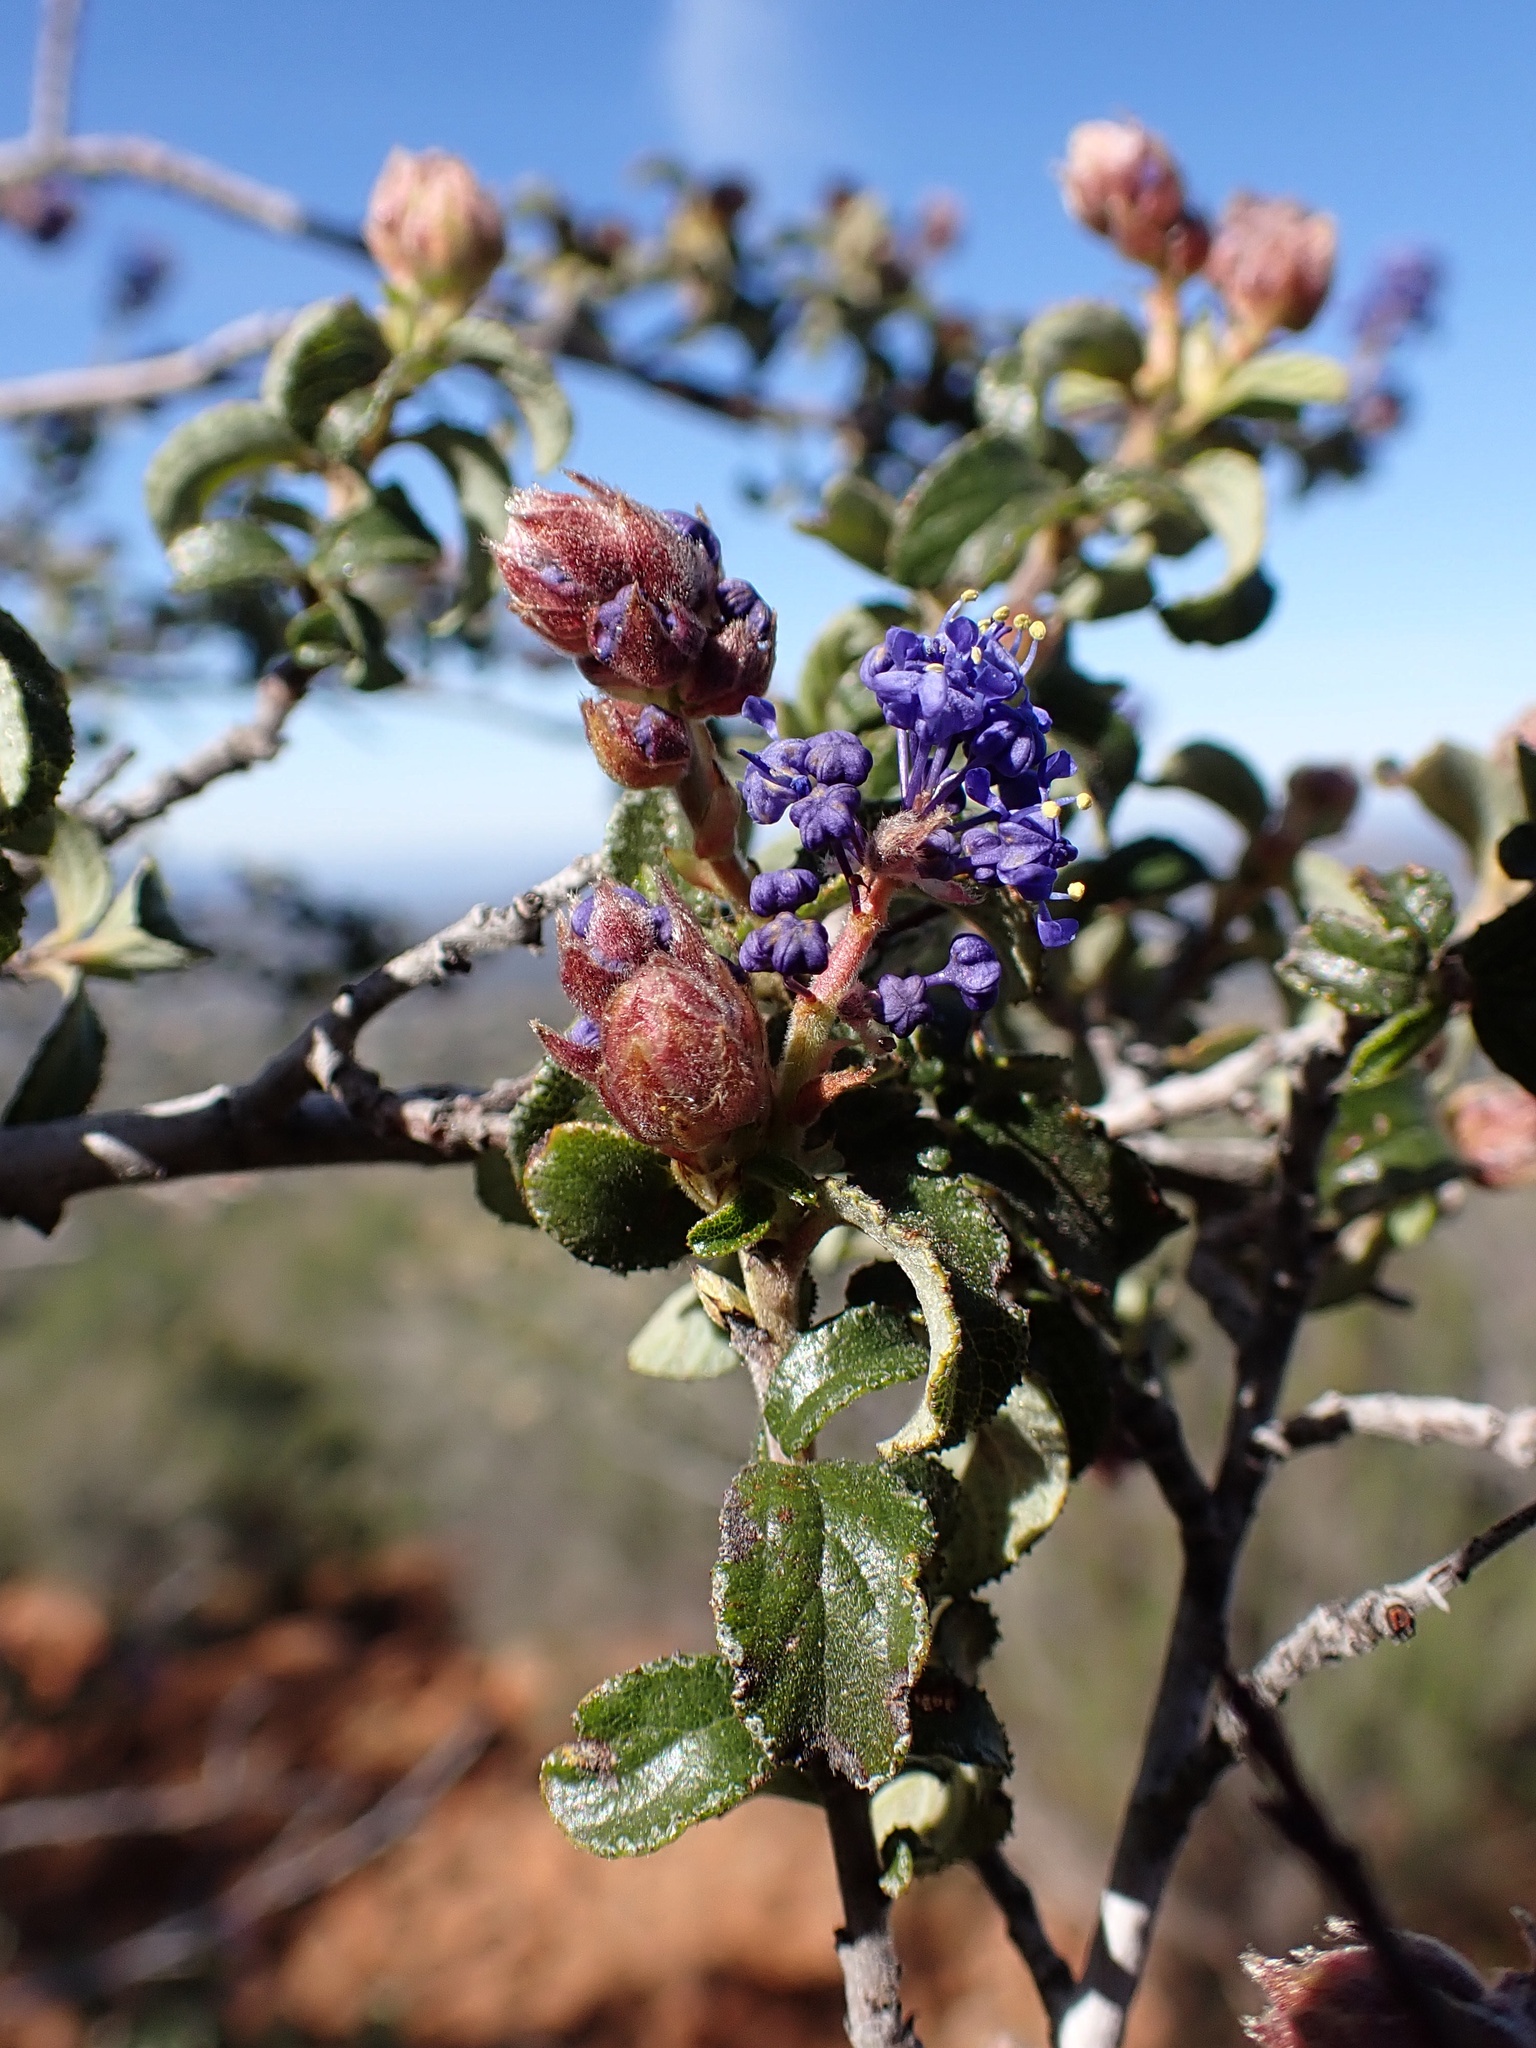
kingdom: Plantae
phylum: Tracheophyta
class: Magnoliopsida
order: Rosales
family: Rhamnaceae
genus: Ceanothus
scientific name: Ceanothus foliosus
